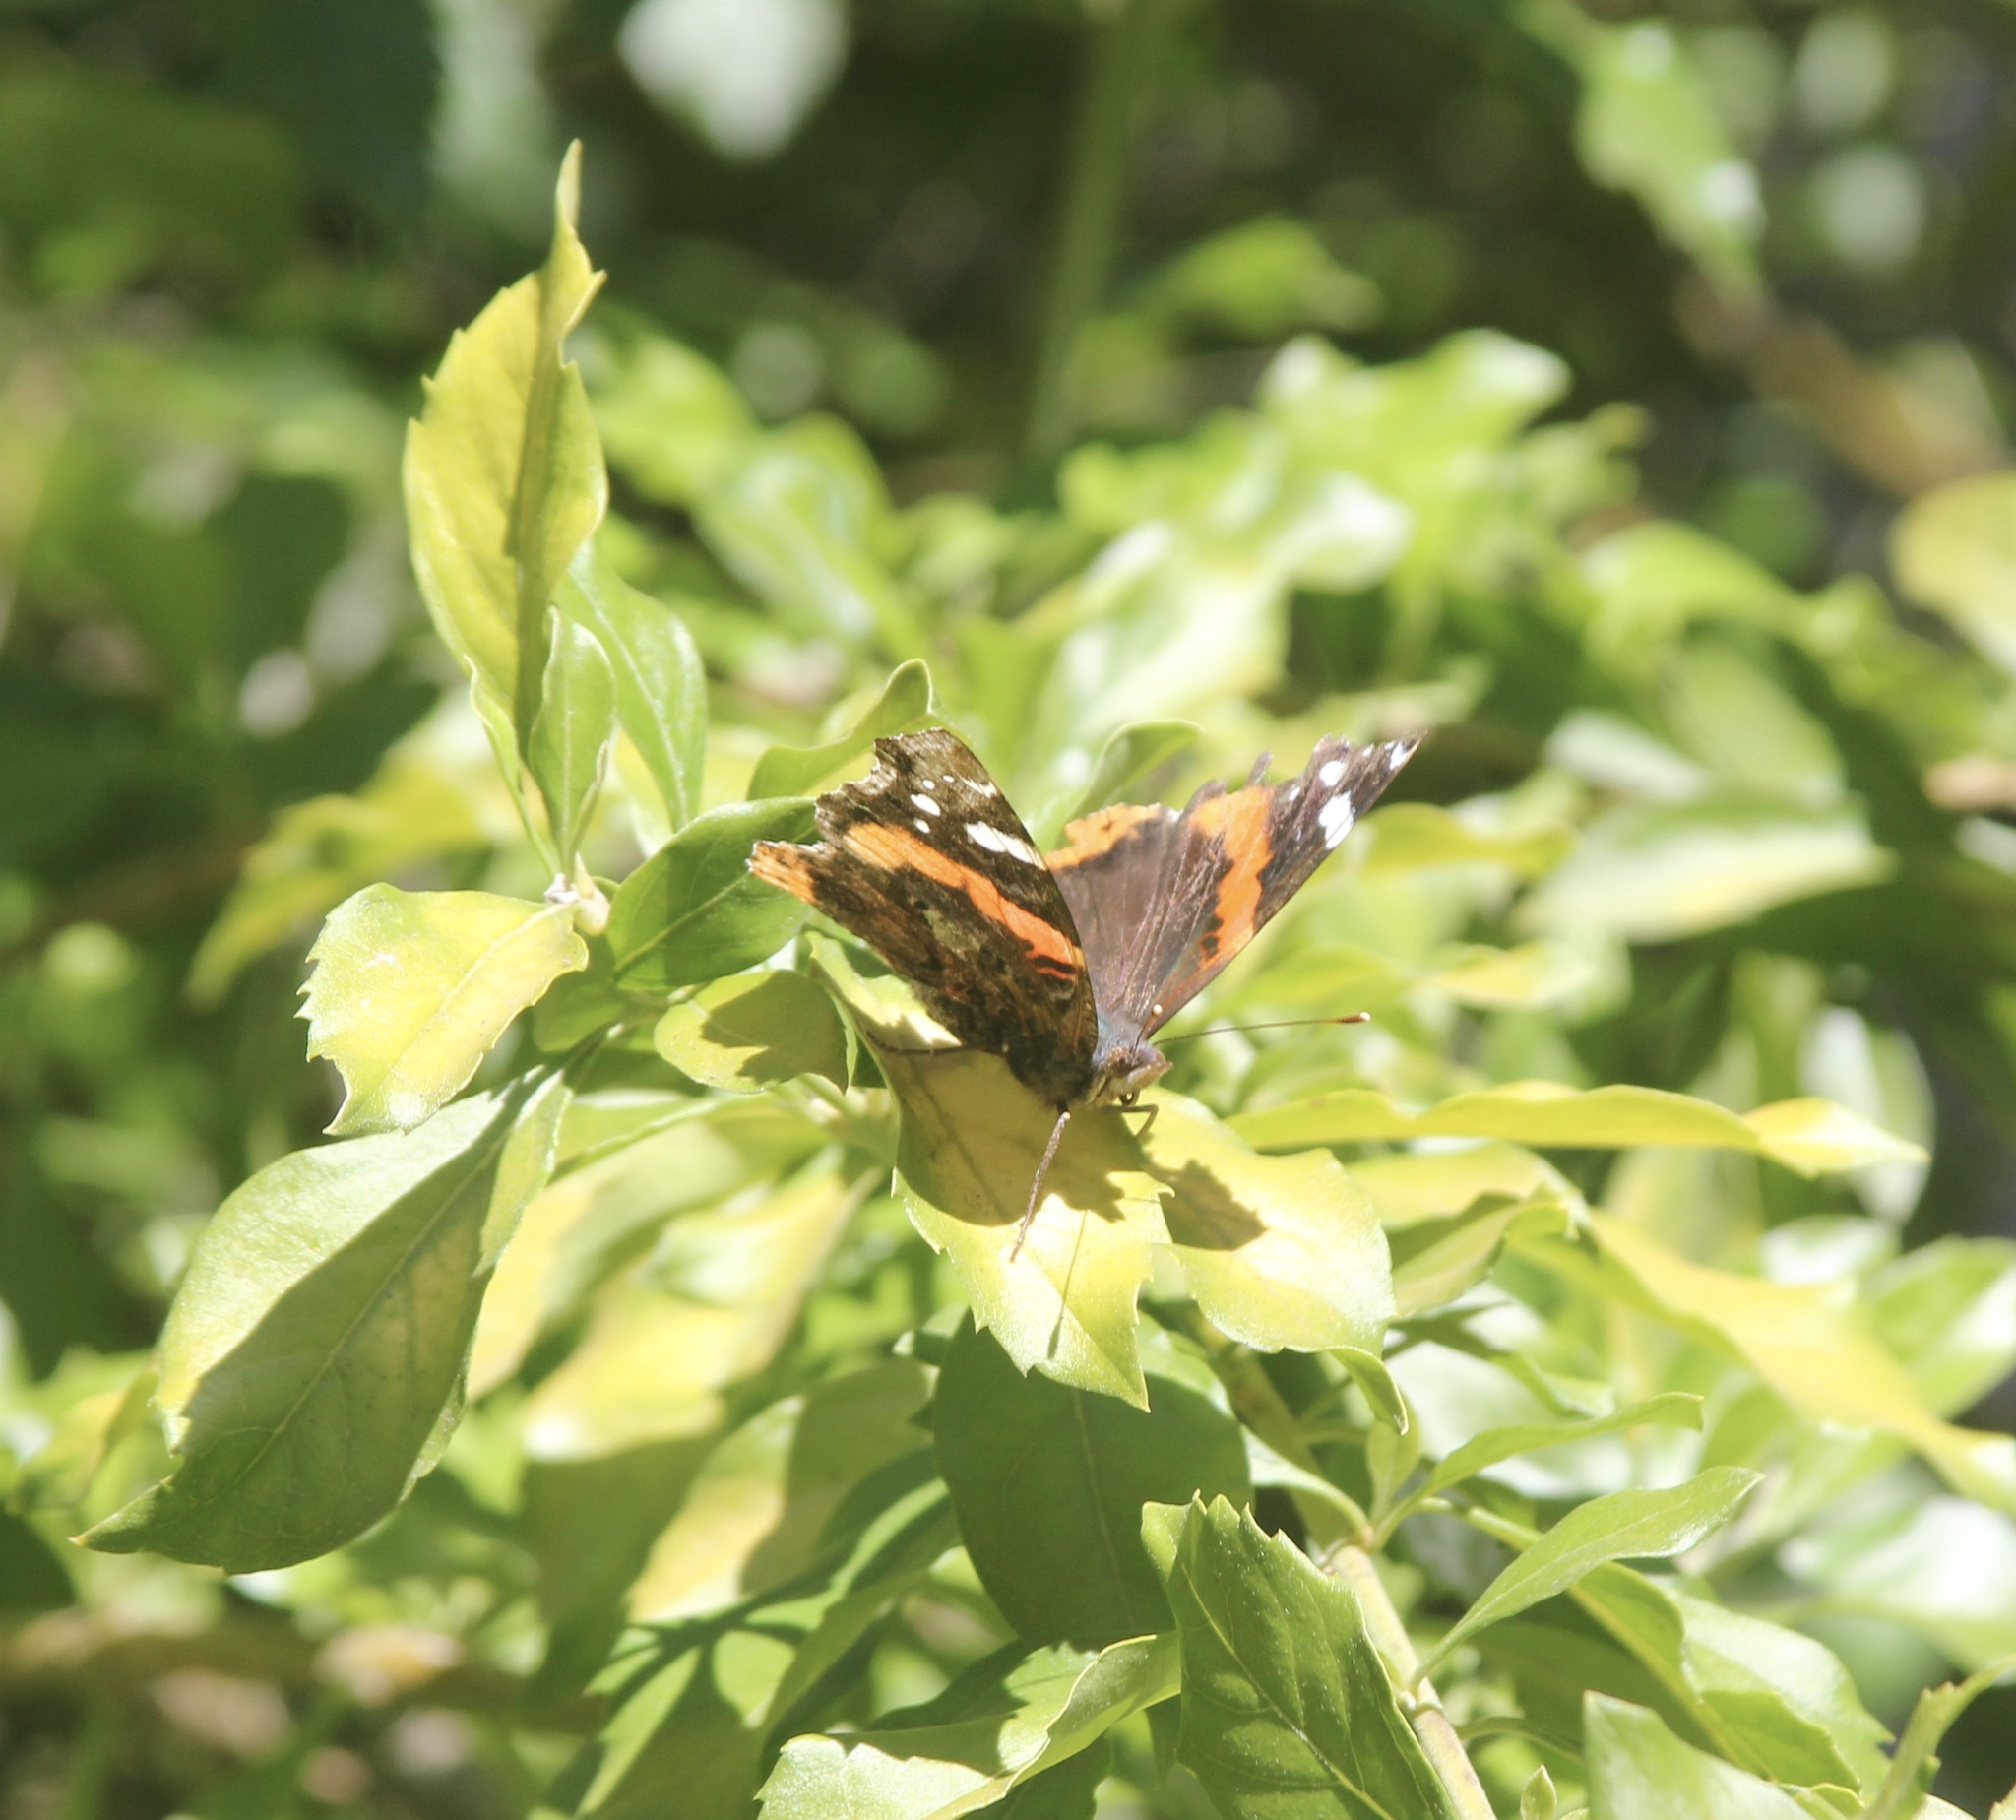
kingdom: Animalia
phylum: Arthropoda
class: Insecta
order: Lepidoptera
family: Nymphalidae
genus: Vanessa
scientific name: Vanessa atalanta
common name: Red admiral
